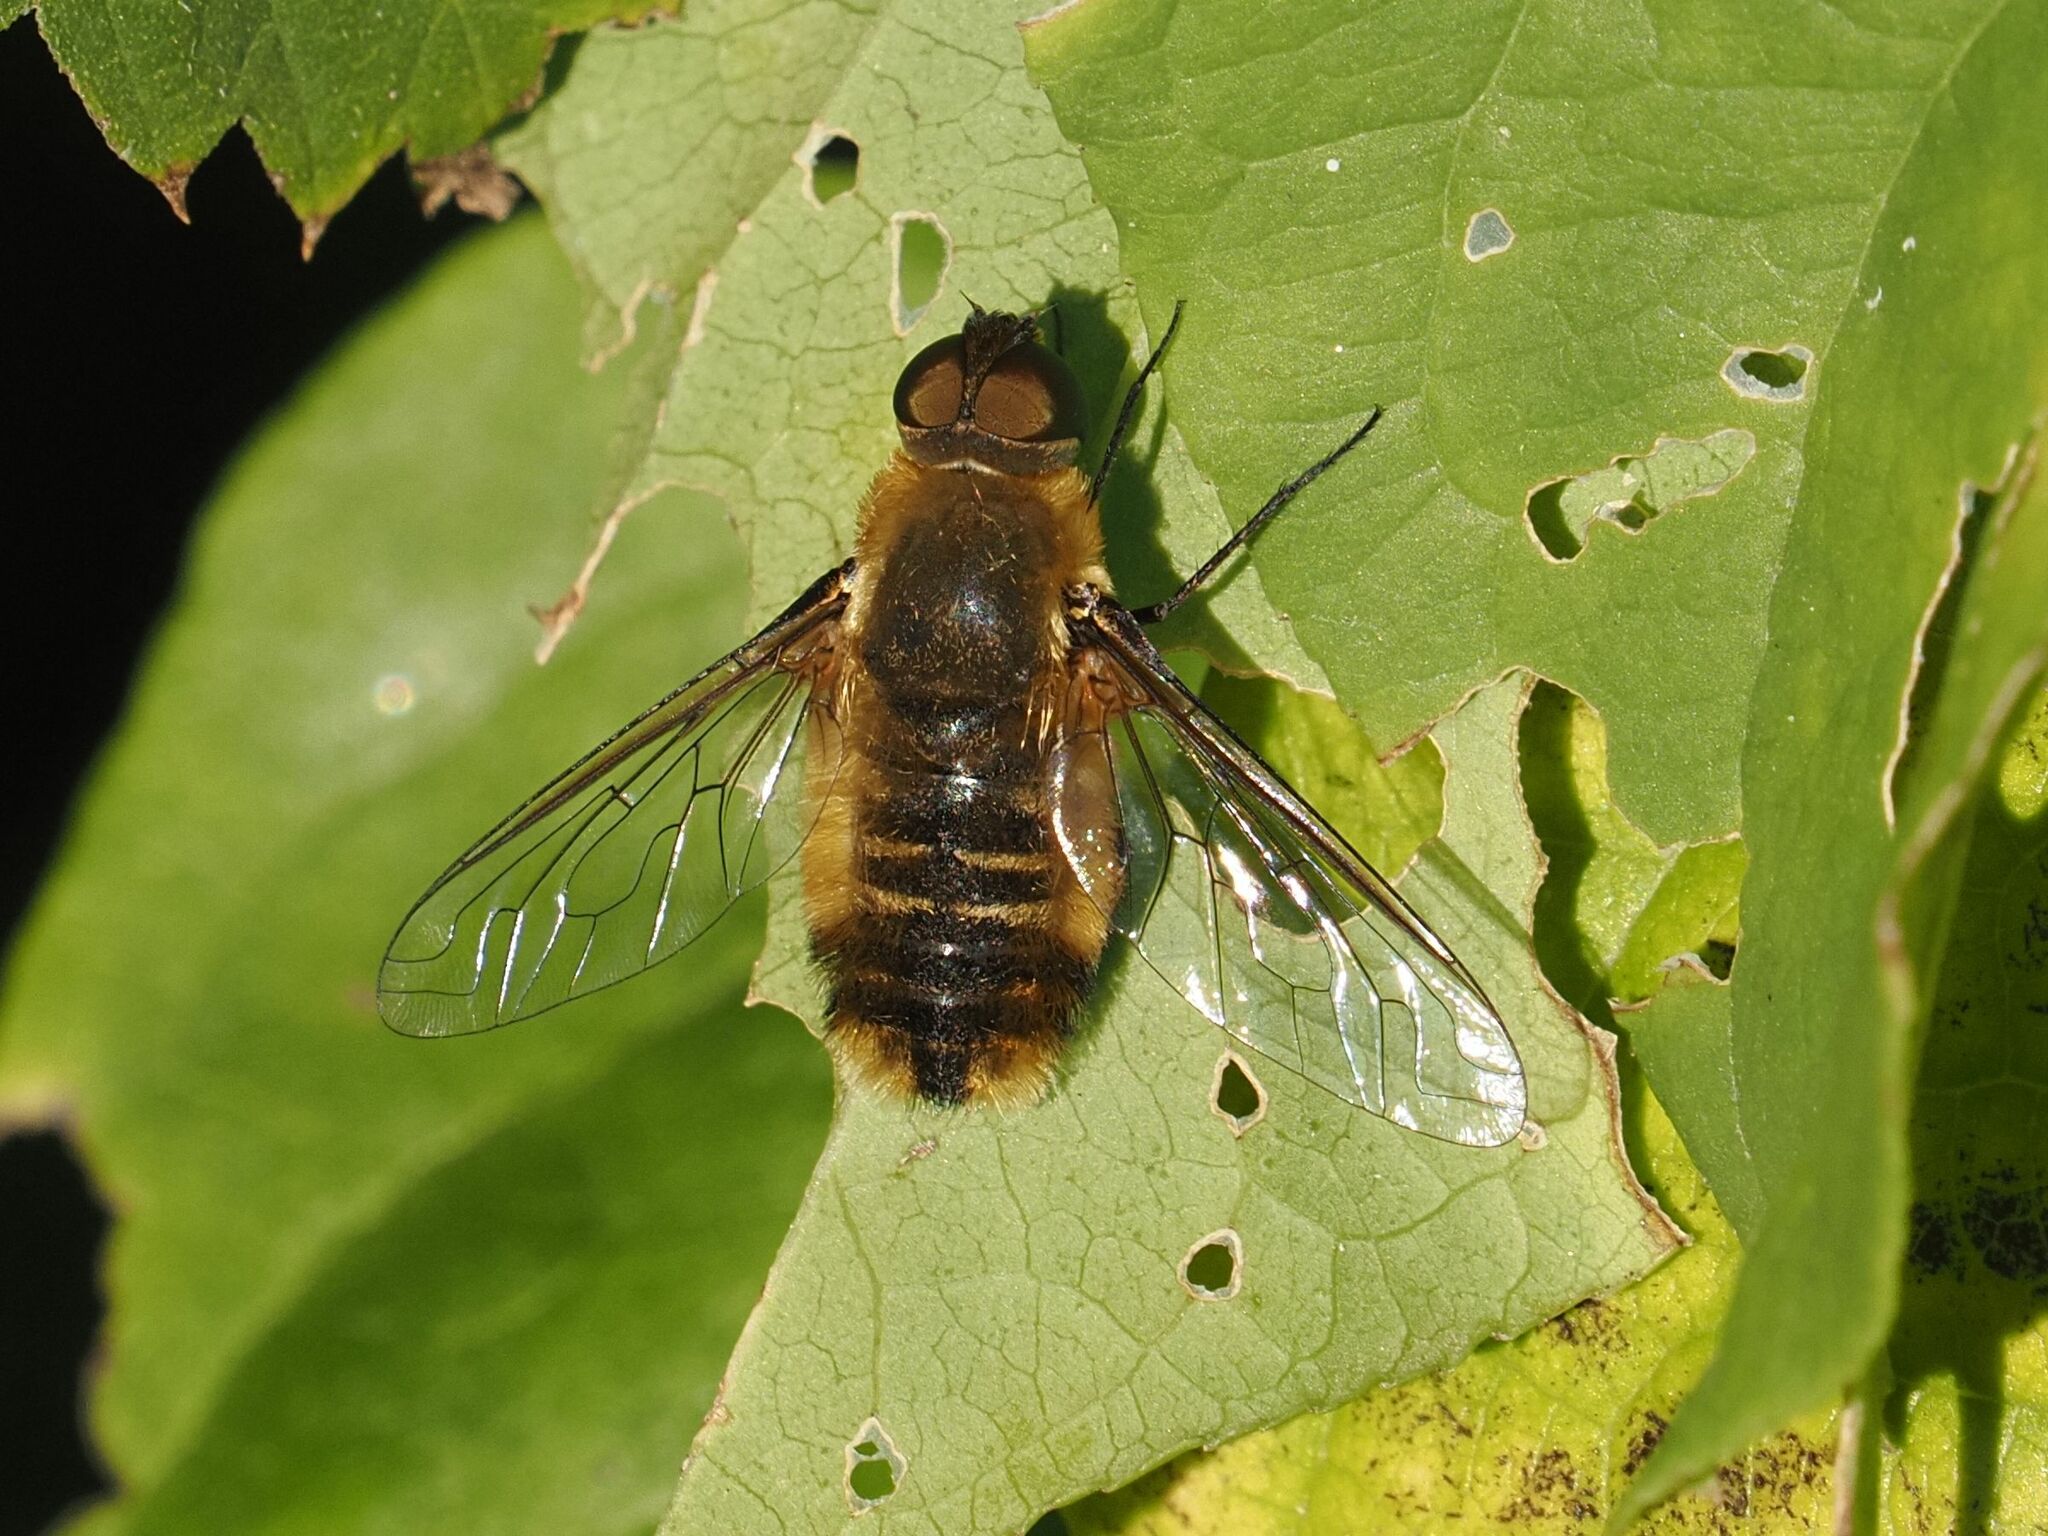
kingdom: Animalia
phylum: Arthropoda
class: Insecta
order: Diptera
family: Bombyliidae
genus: Villa
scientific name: Villa hottentotta
